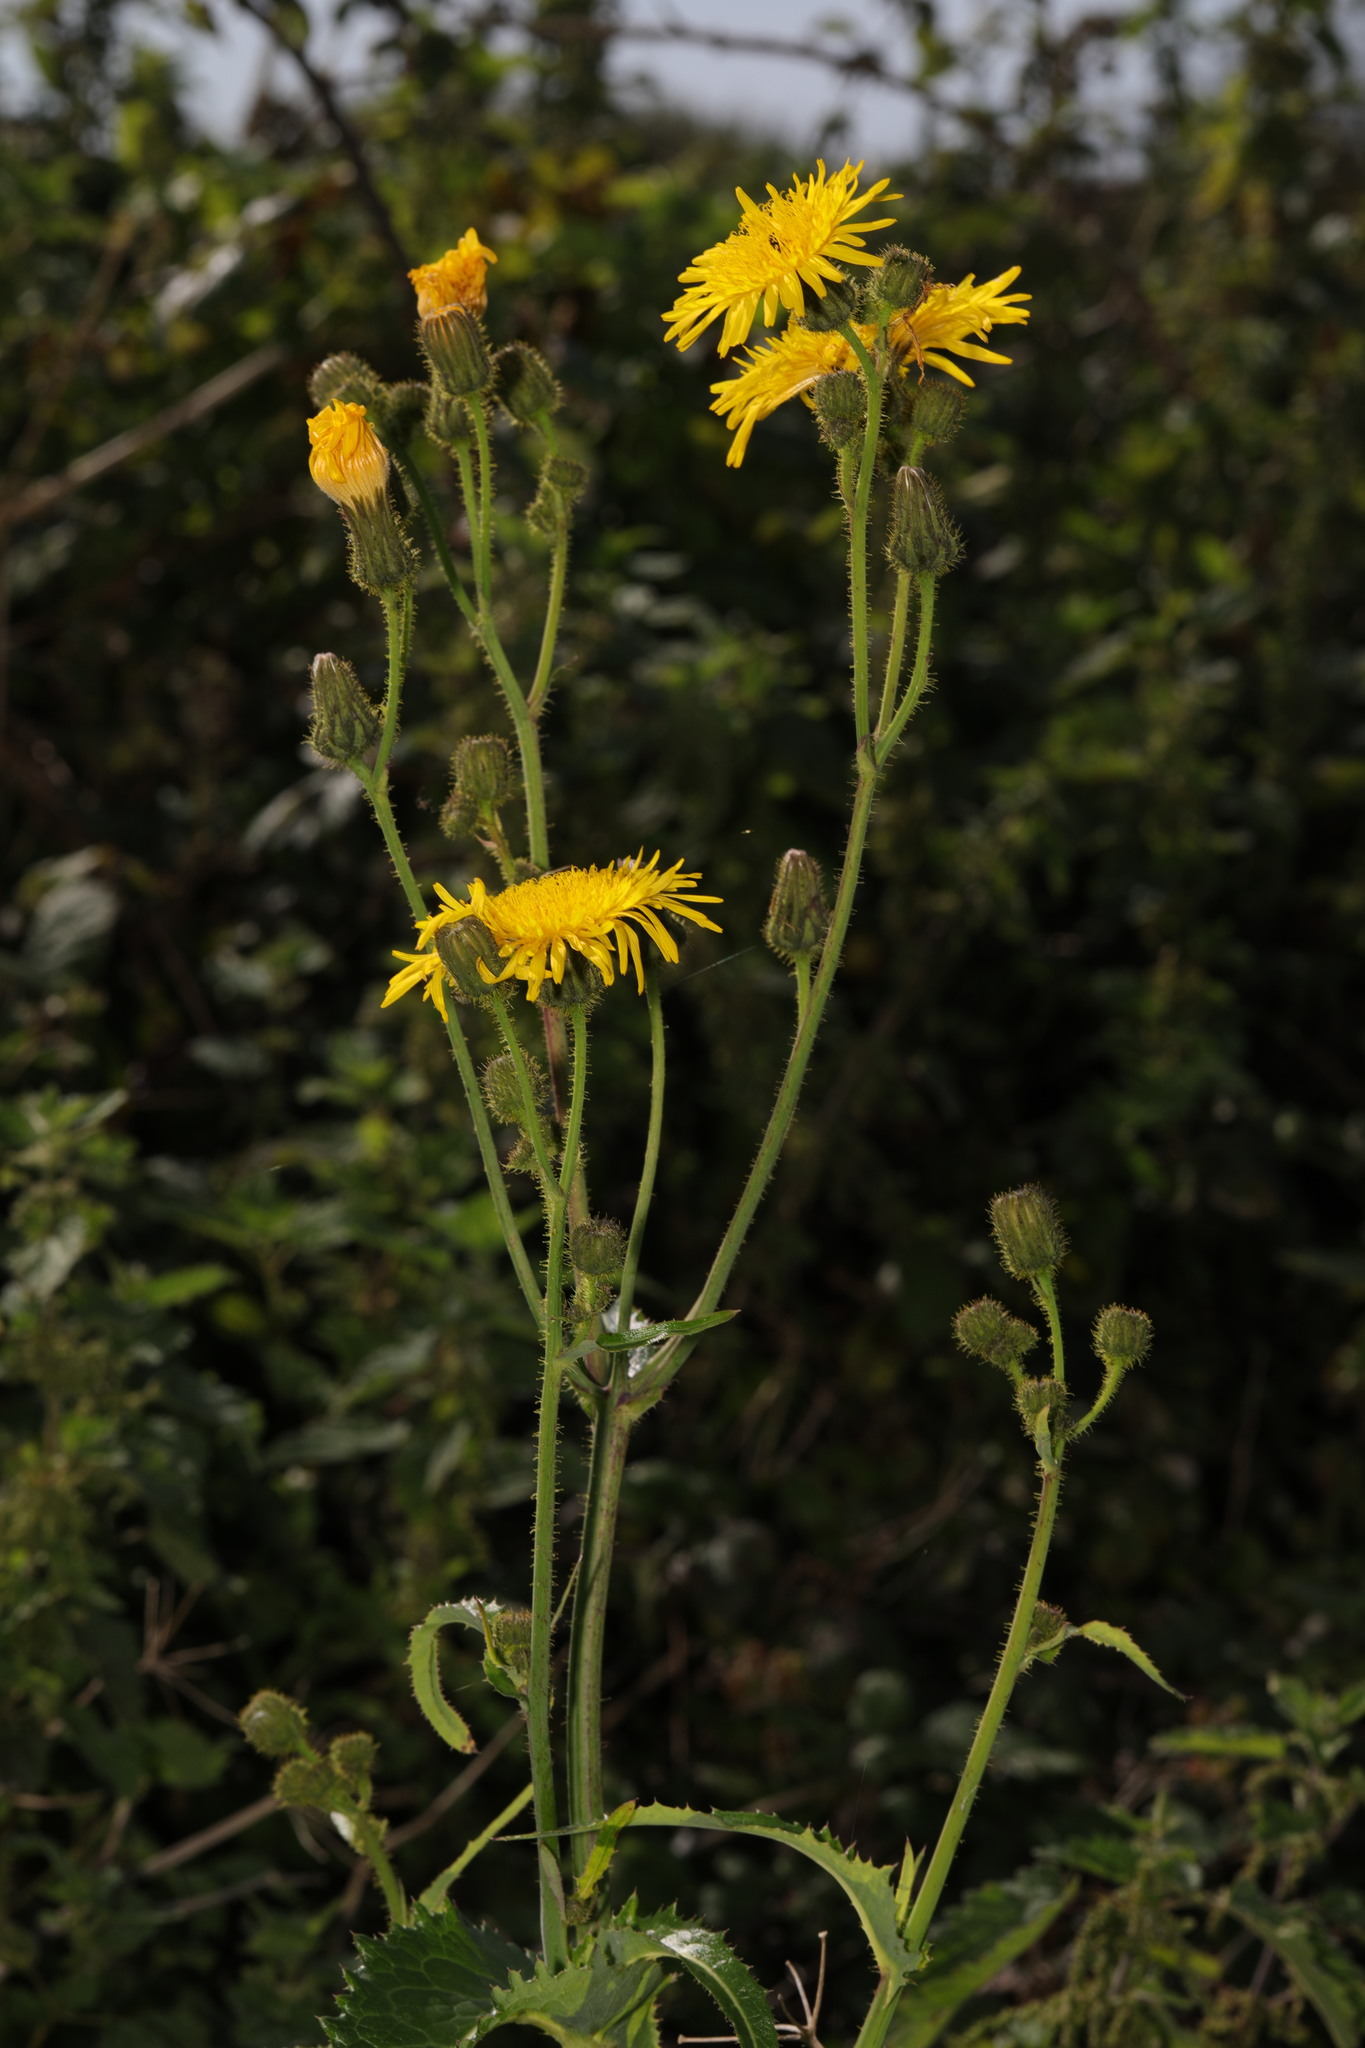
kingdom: Plantae
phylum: Tracheophyta
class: Magnoliopsida
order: Asterales
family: Asteraceae
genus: Sonchus
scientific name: Sonchus arvensis
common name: Perennial sow-thistle
